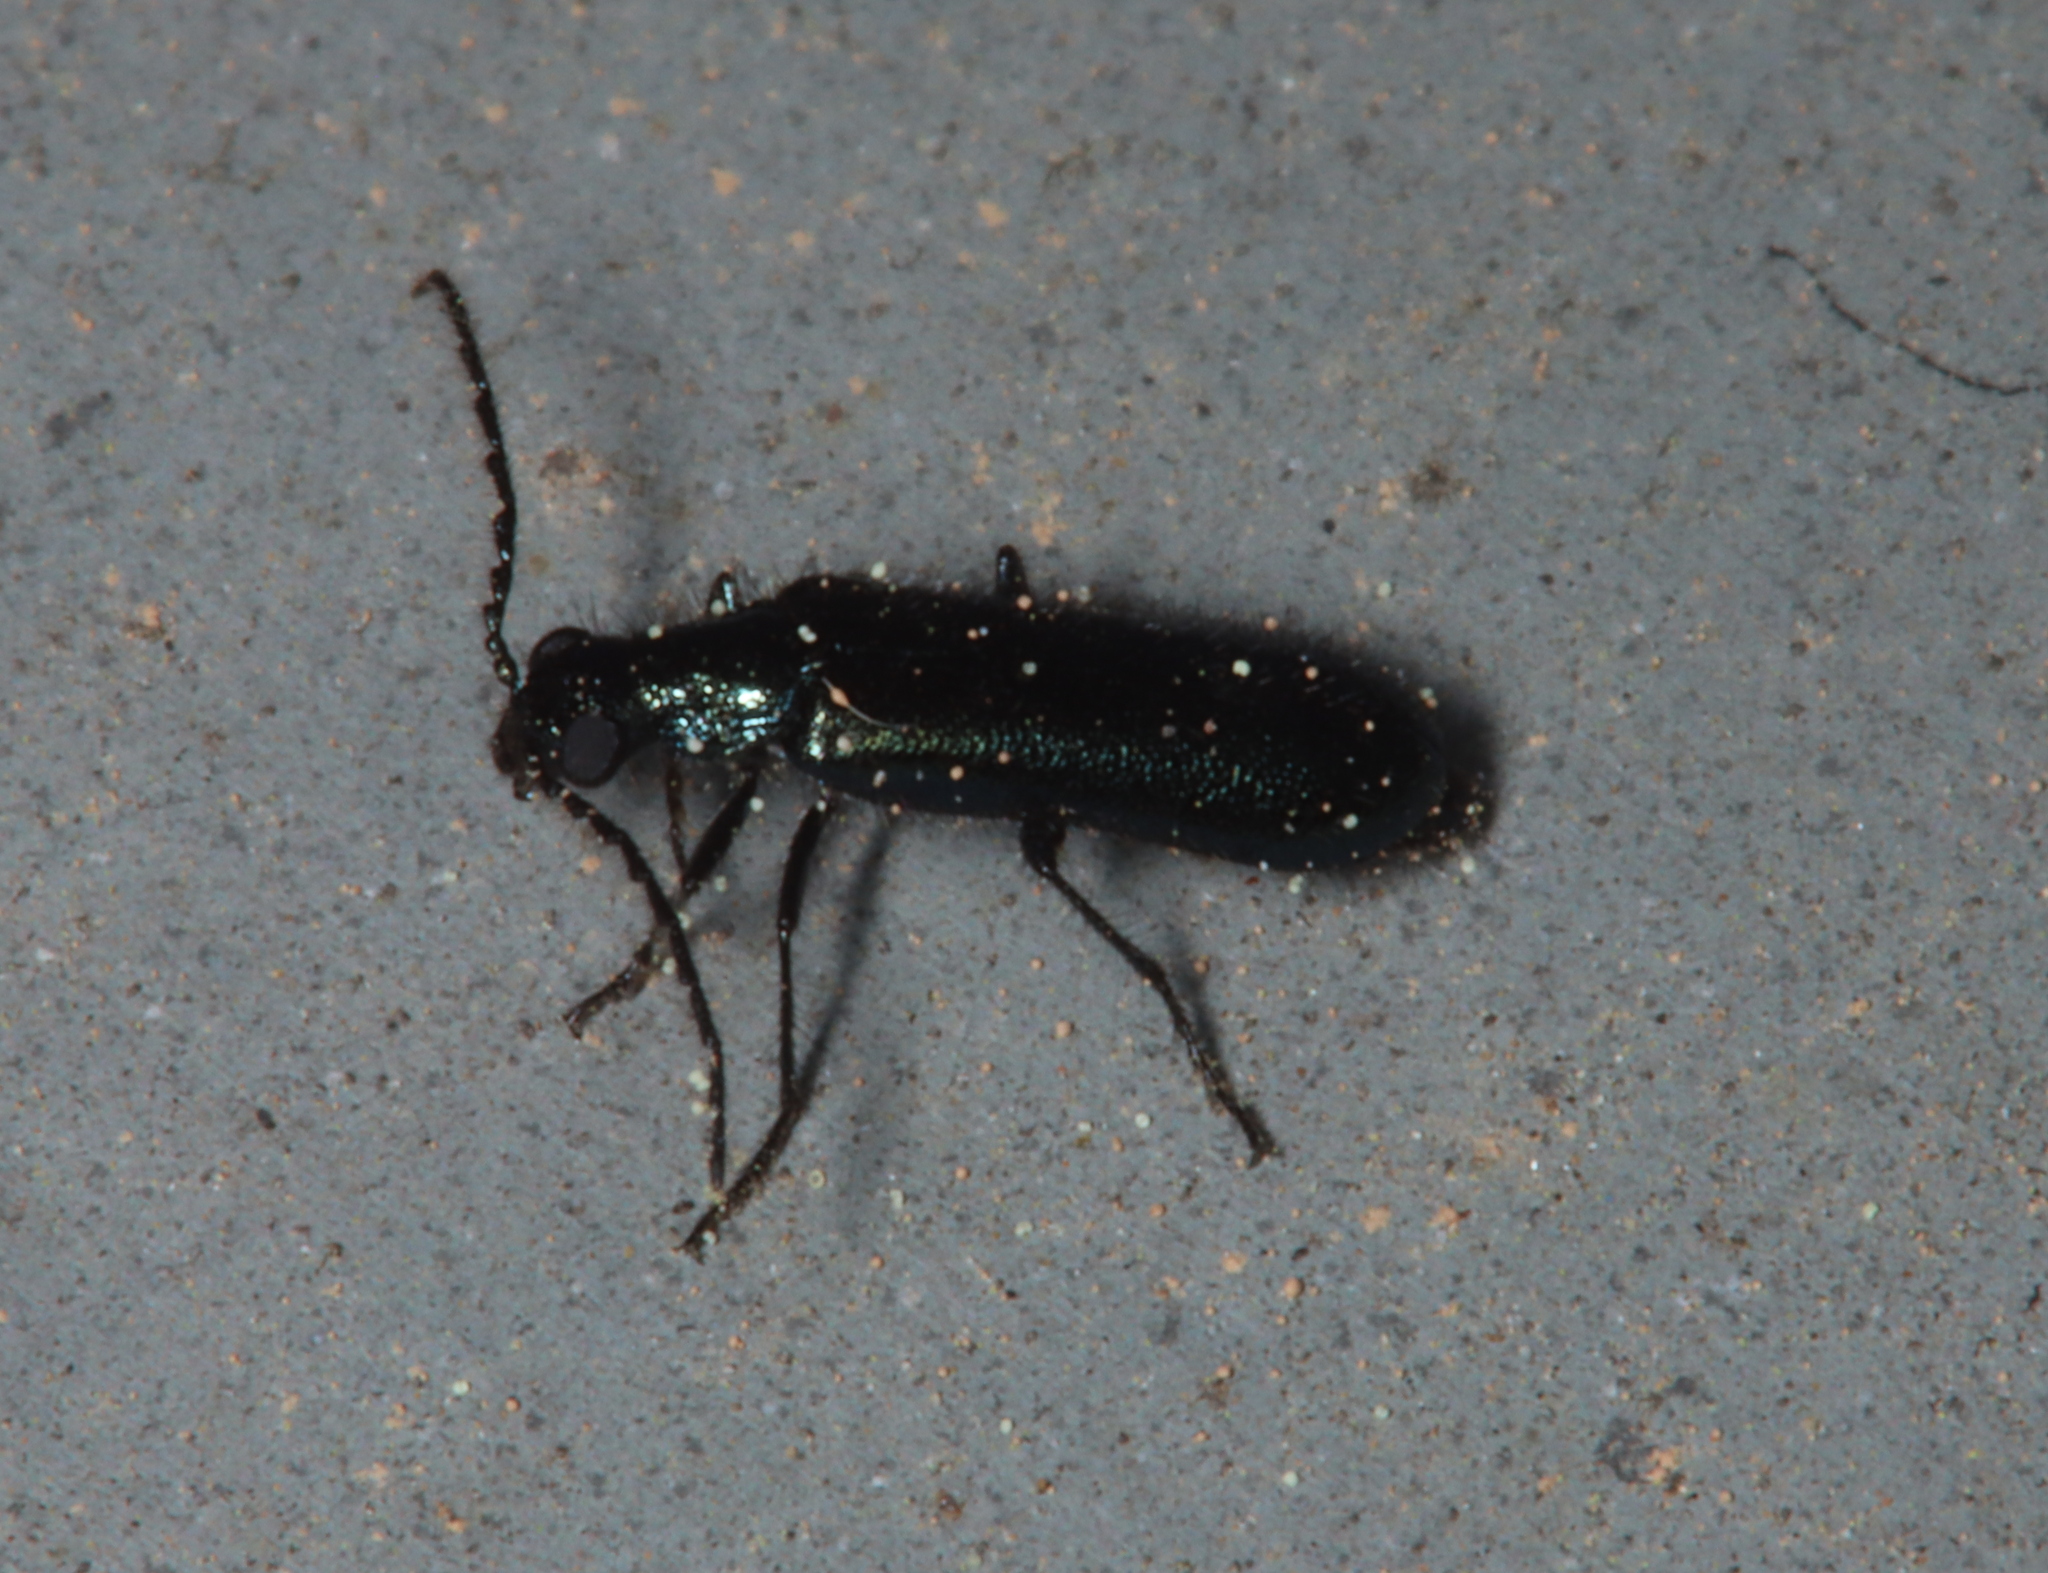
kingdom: Animalia
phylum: Arthropoda
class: Insecta
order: Coleoptera
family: Melyridae
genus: Dasytes
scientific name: Dasytes caeruleus
